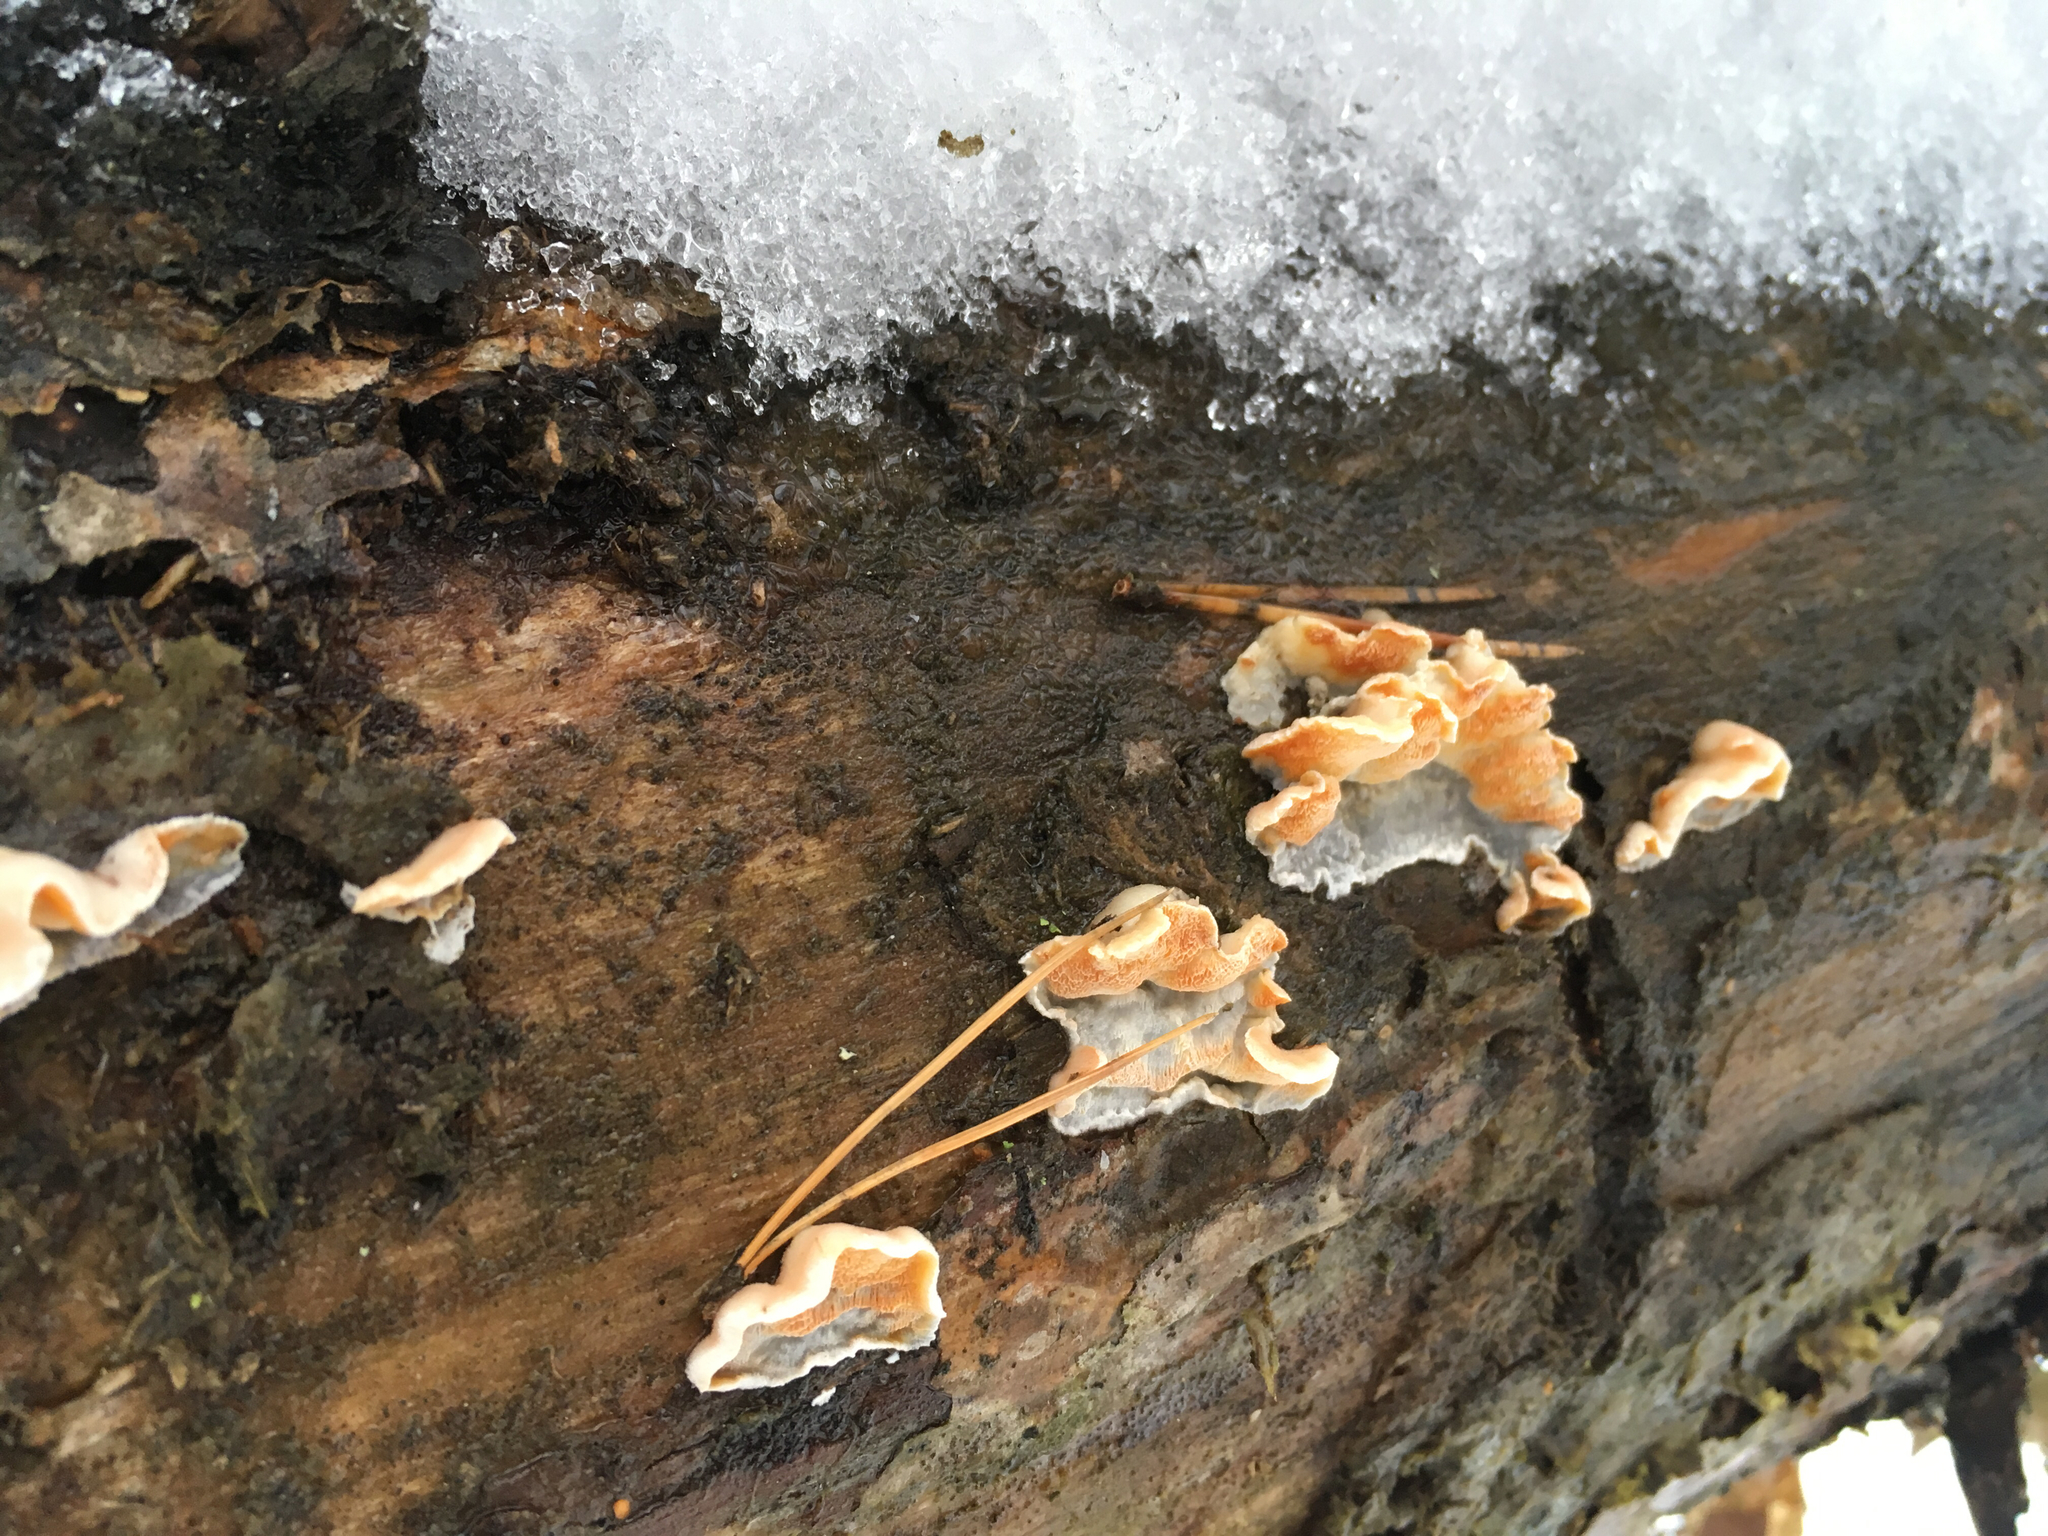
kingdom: Fungi
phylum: Basidiomycota
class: Agaricomycetes
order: Polyporales
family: Incrustoporiaceae
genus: Skeletocutis
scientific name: Skeletocutis amorpha
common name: Rusty crust
